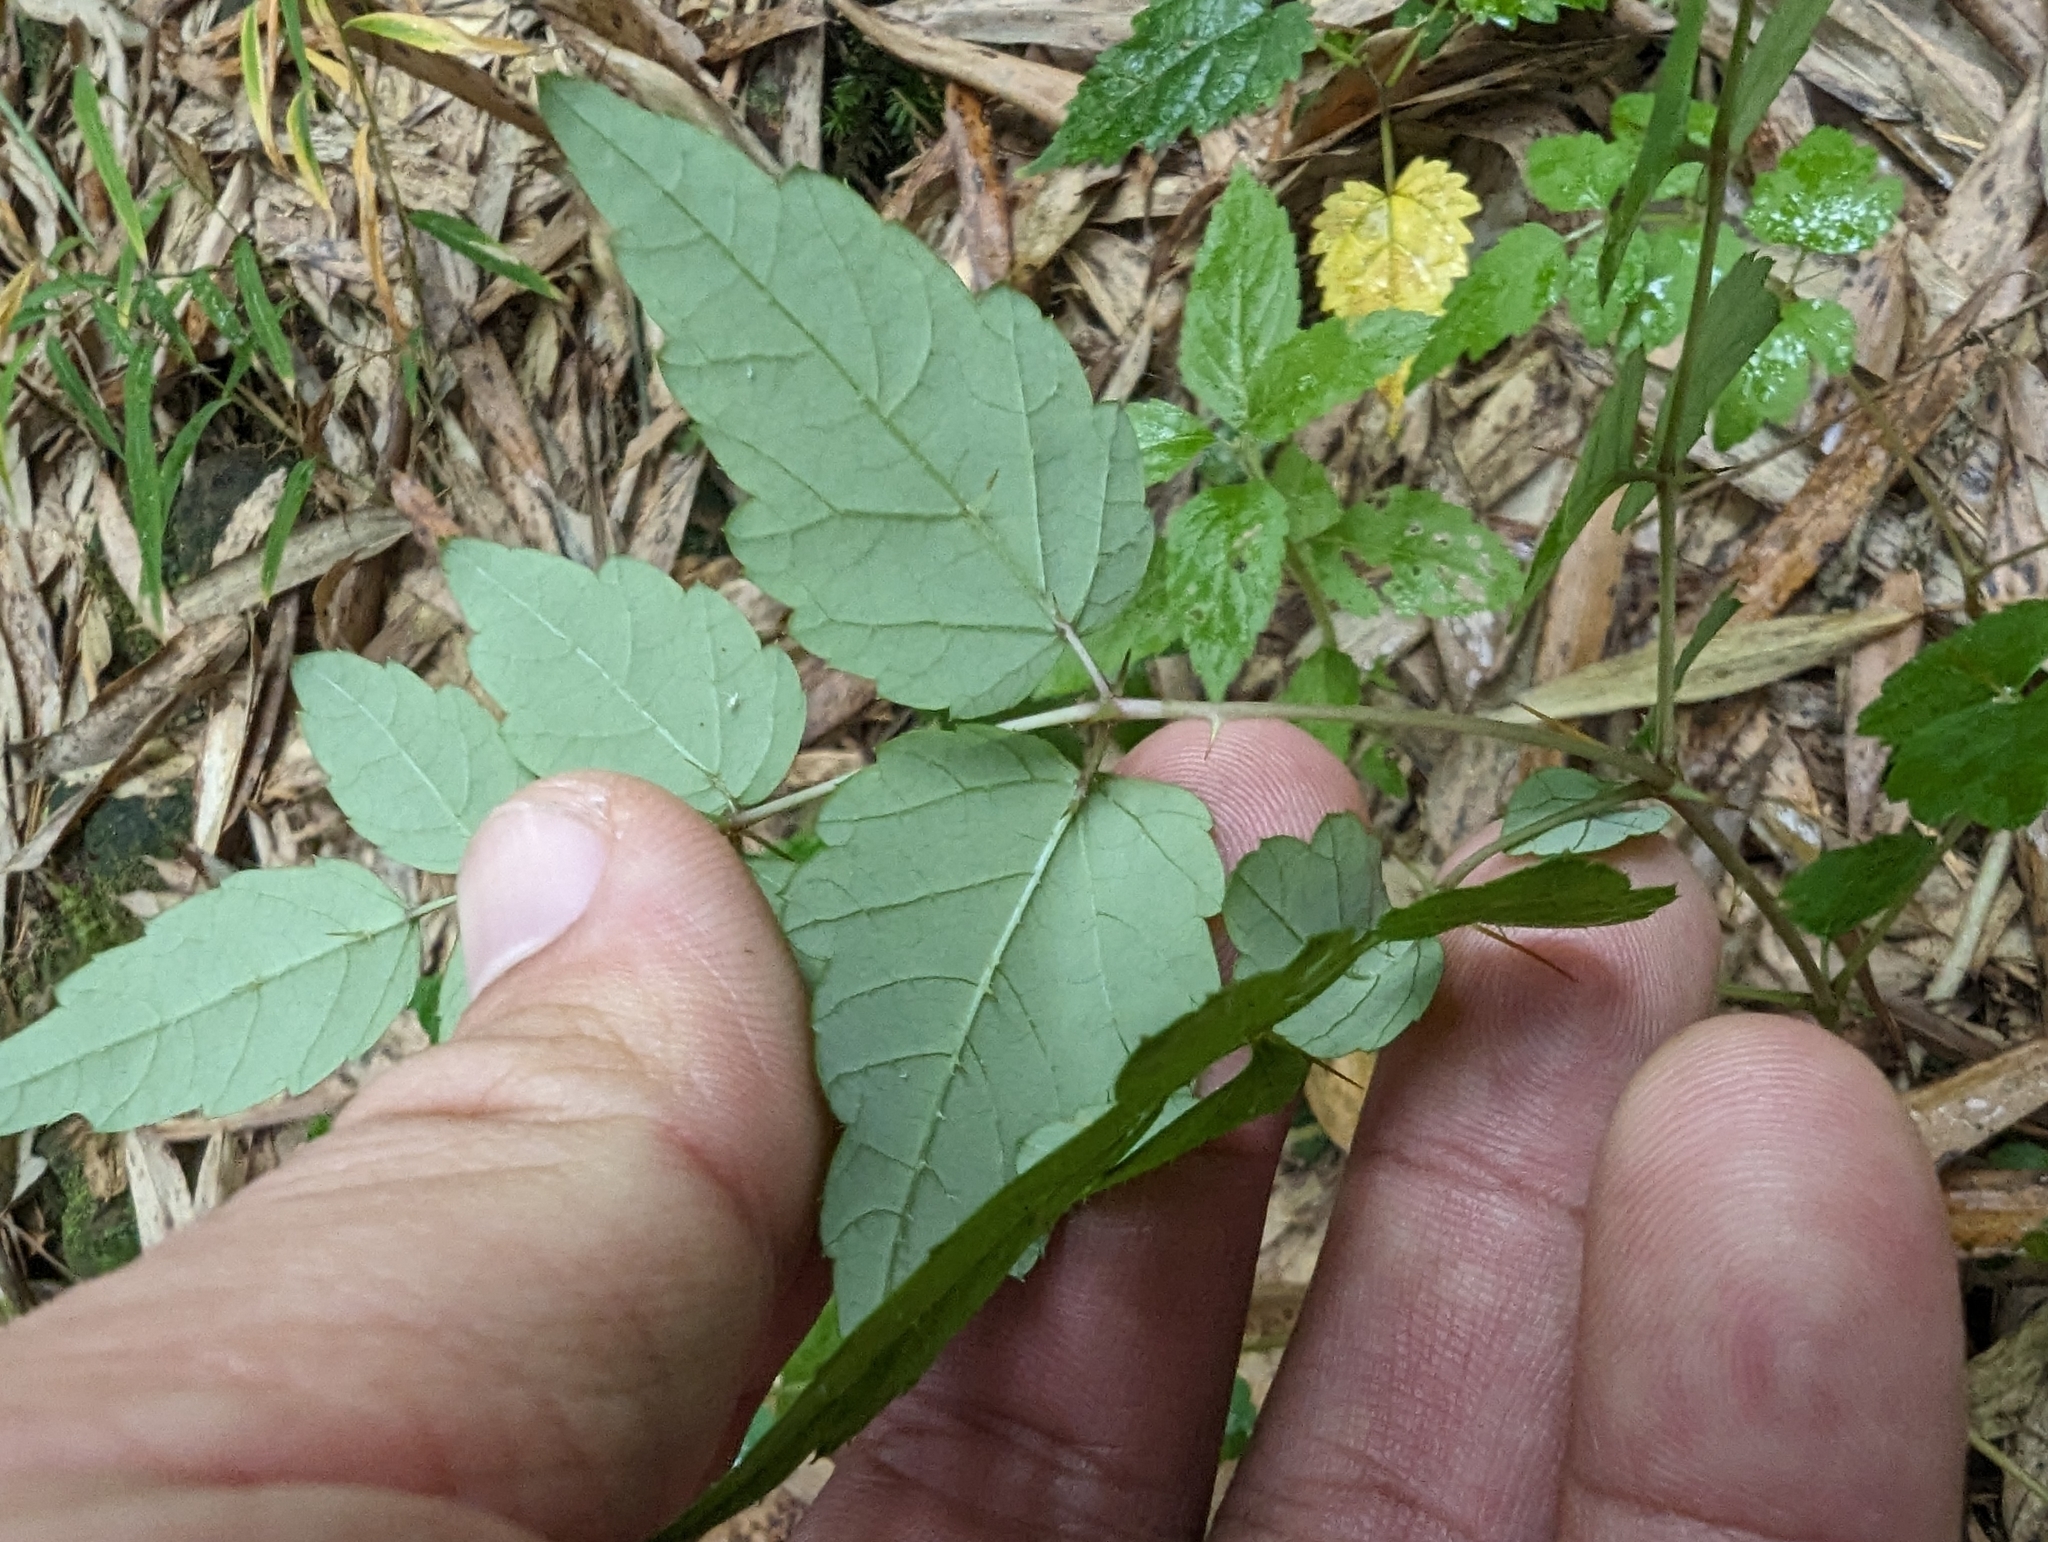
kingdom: Plantae
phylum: Tracheophyta
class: Magnoliopsida
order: Apiales
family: Araliaceae
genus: Aralia
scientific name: Aralia bipinnata
